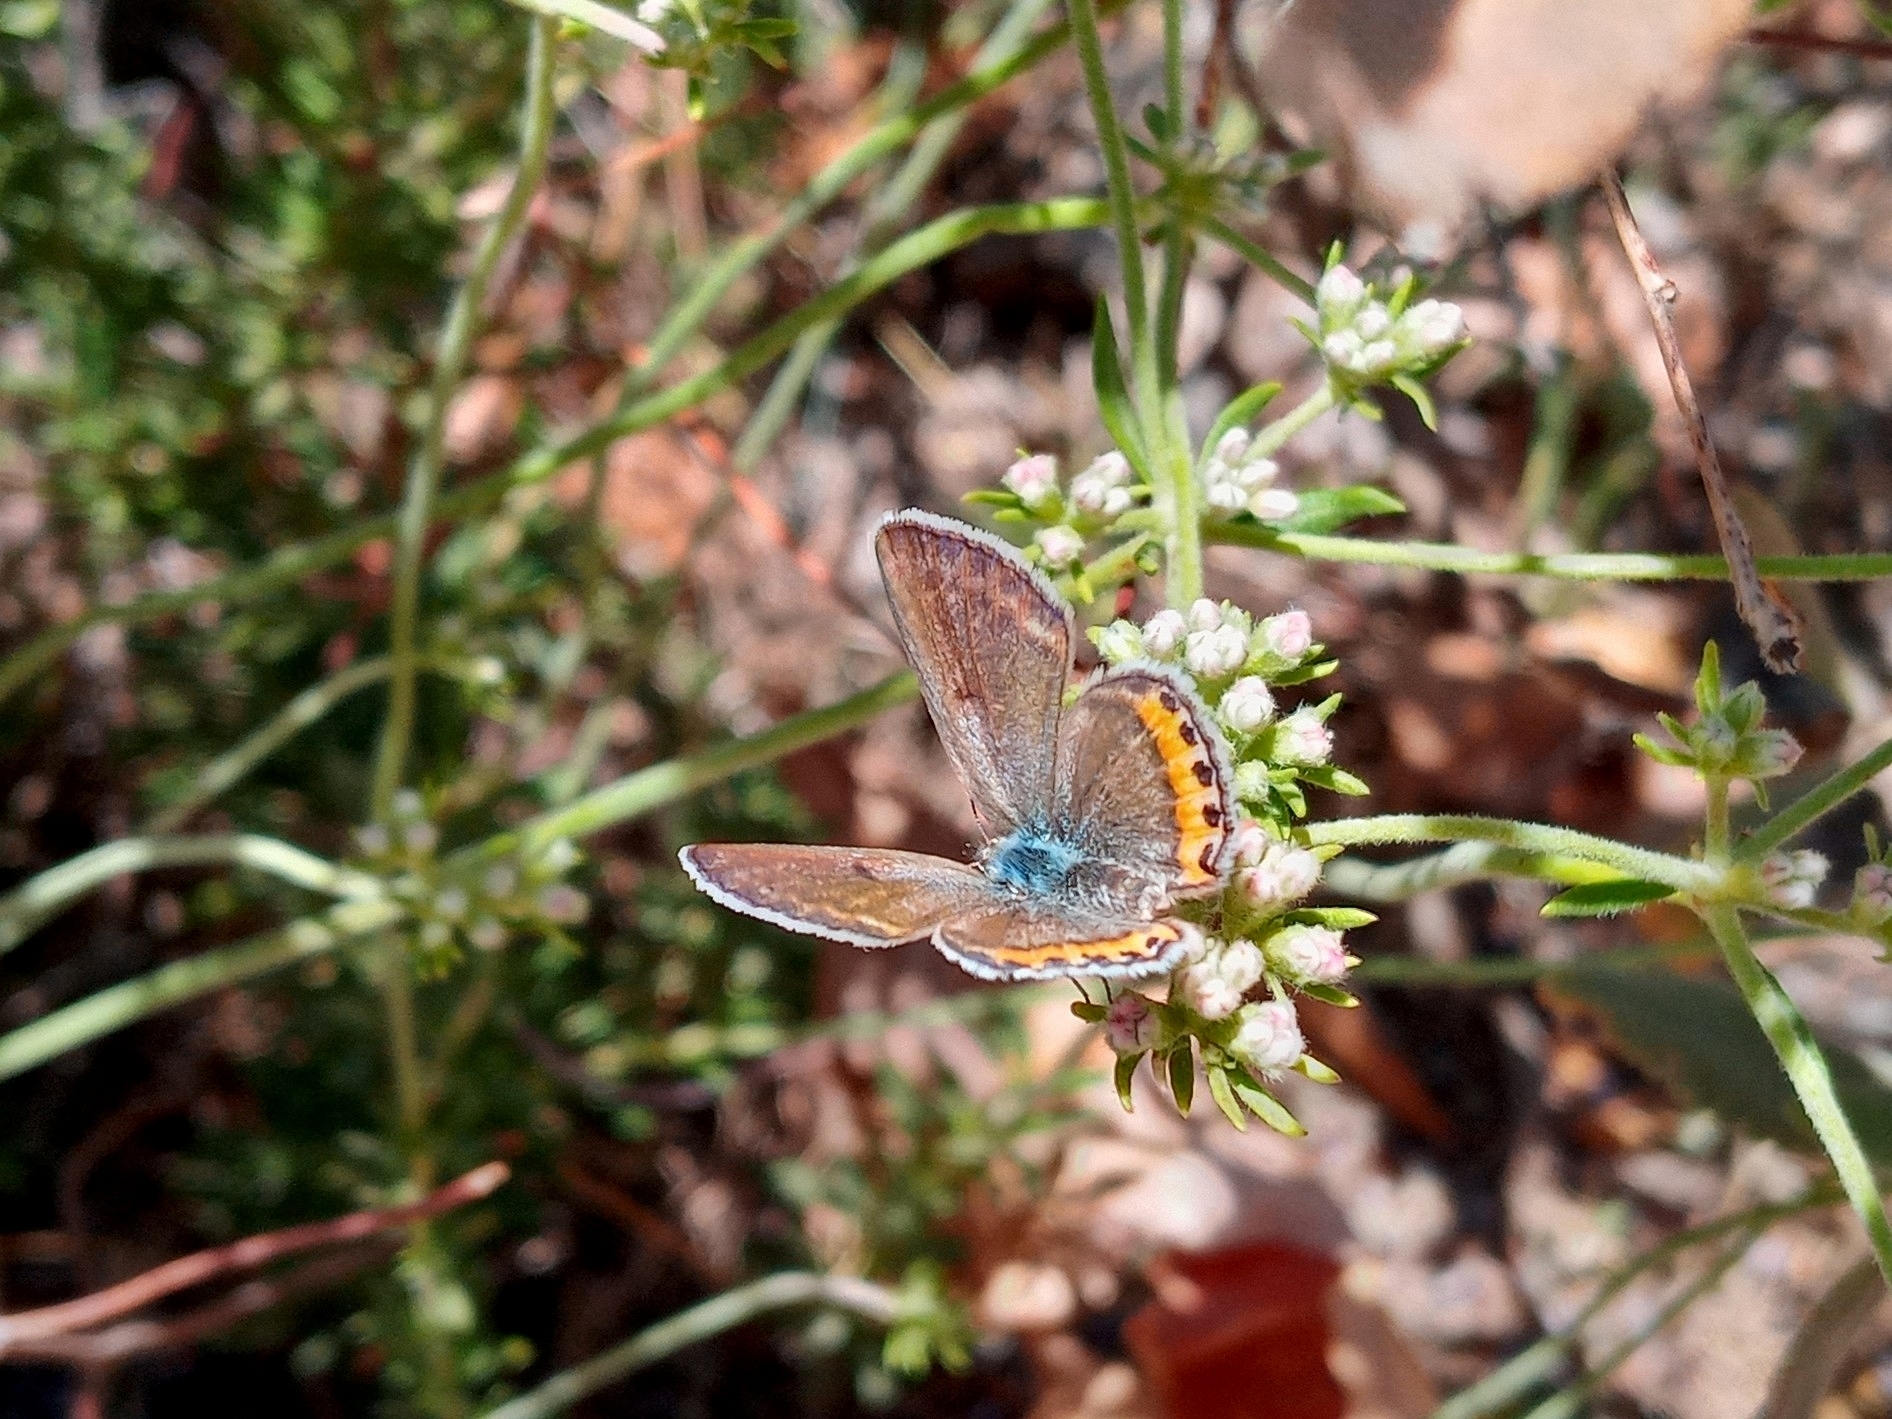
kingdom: Animalia
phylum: Arthropoda
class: Insecta
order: Lepidoptera
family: Lycaenidae
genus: Icaricia
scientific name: Icaricia lupini
